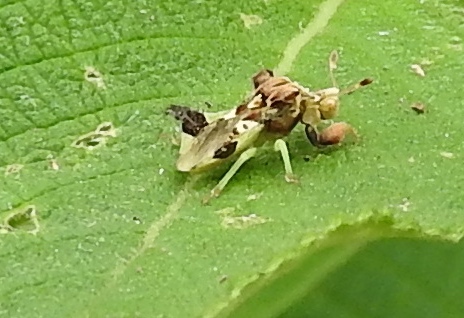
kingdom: Animalia
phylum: Arthropoda
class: Insecta
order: Hemiptera
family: Reduviidae
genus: Phymata
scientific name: Phymata
